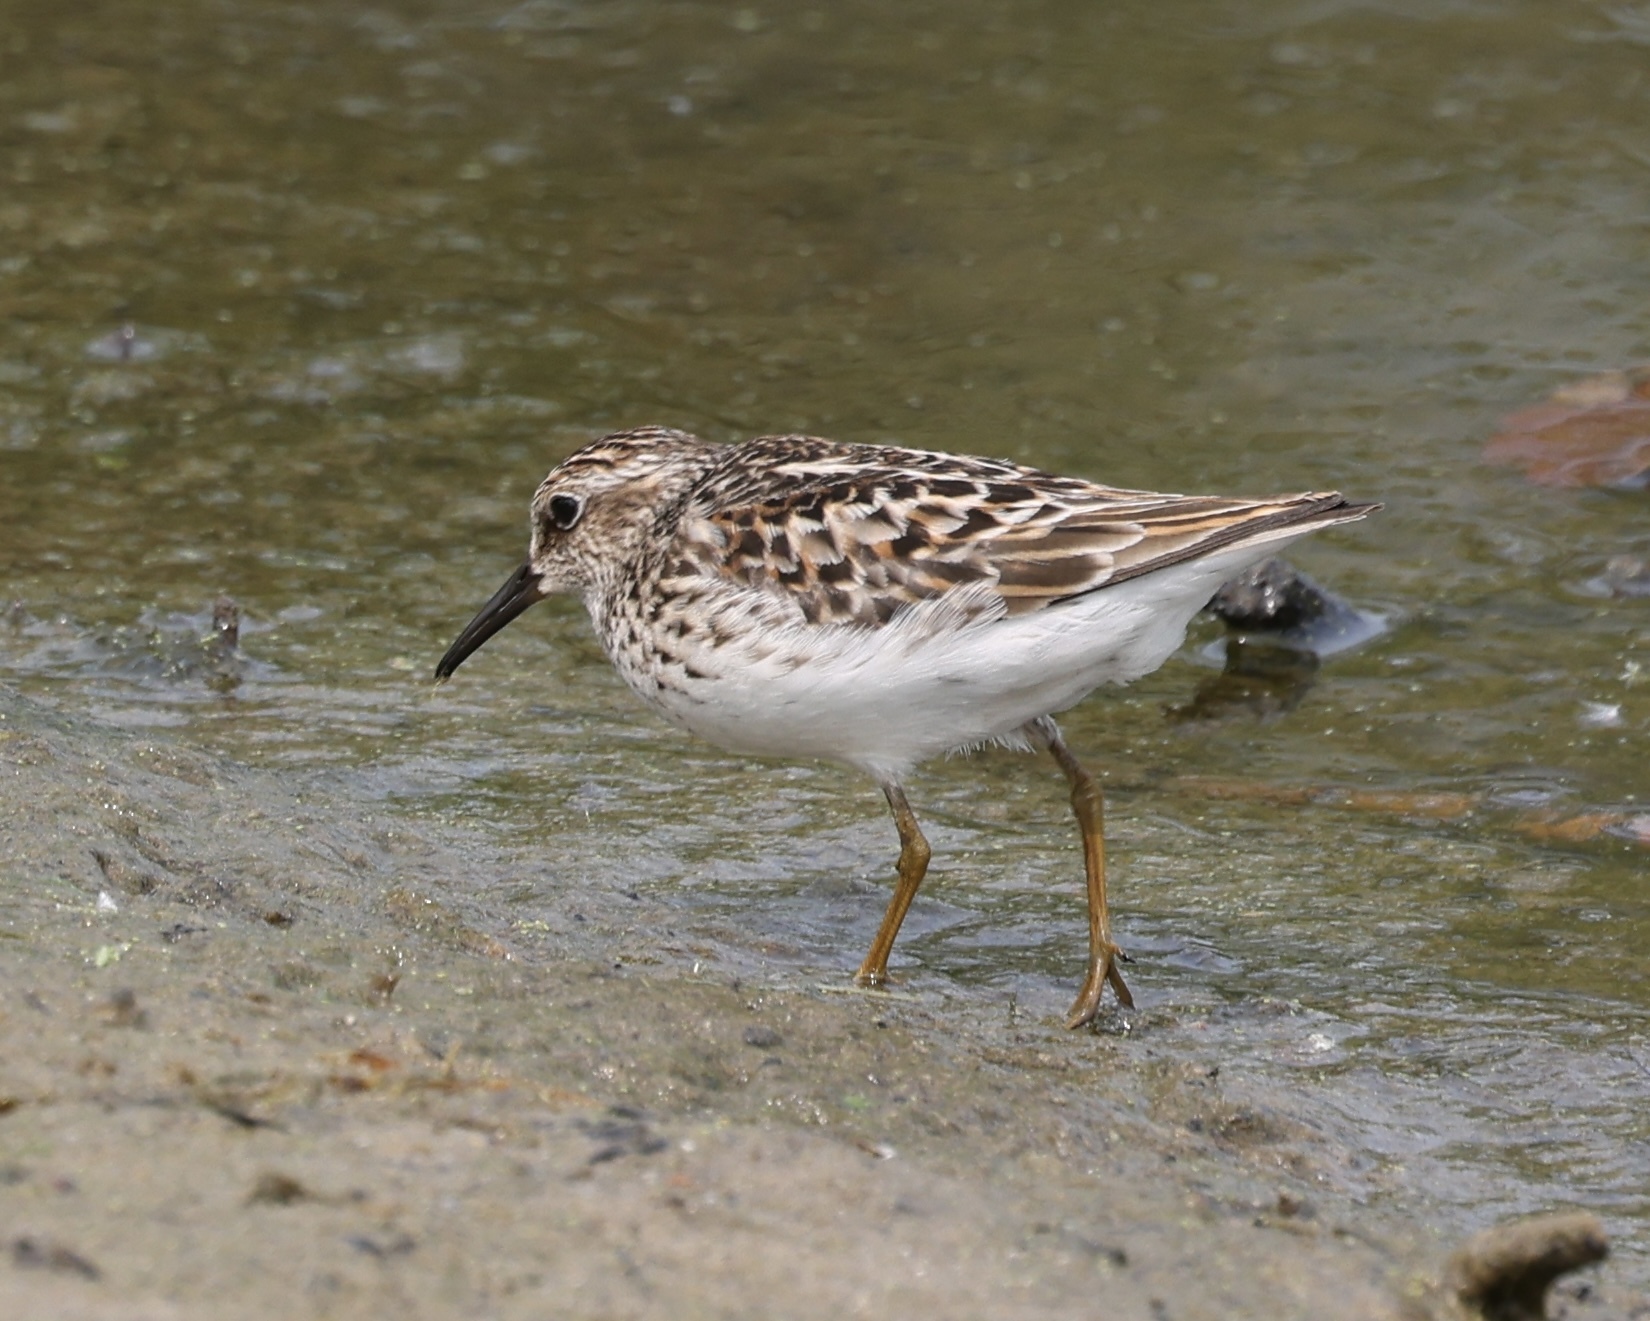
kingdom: Animalia
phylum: Chordata
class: Aves
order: Charadriiformes
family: Scolopacidae
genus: Calidris
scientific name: Calidris minutilla
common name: Least sandpiper
